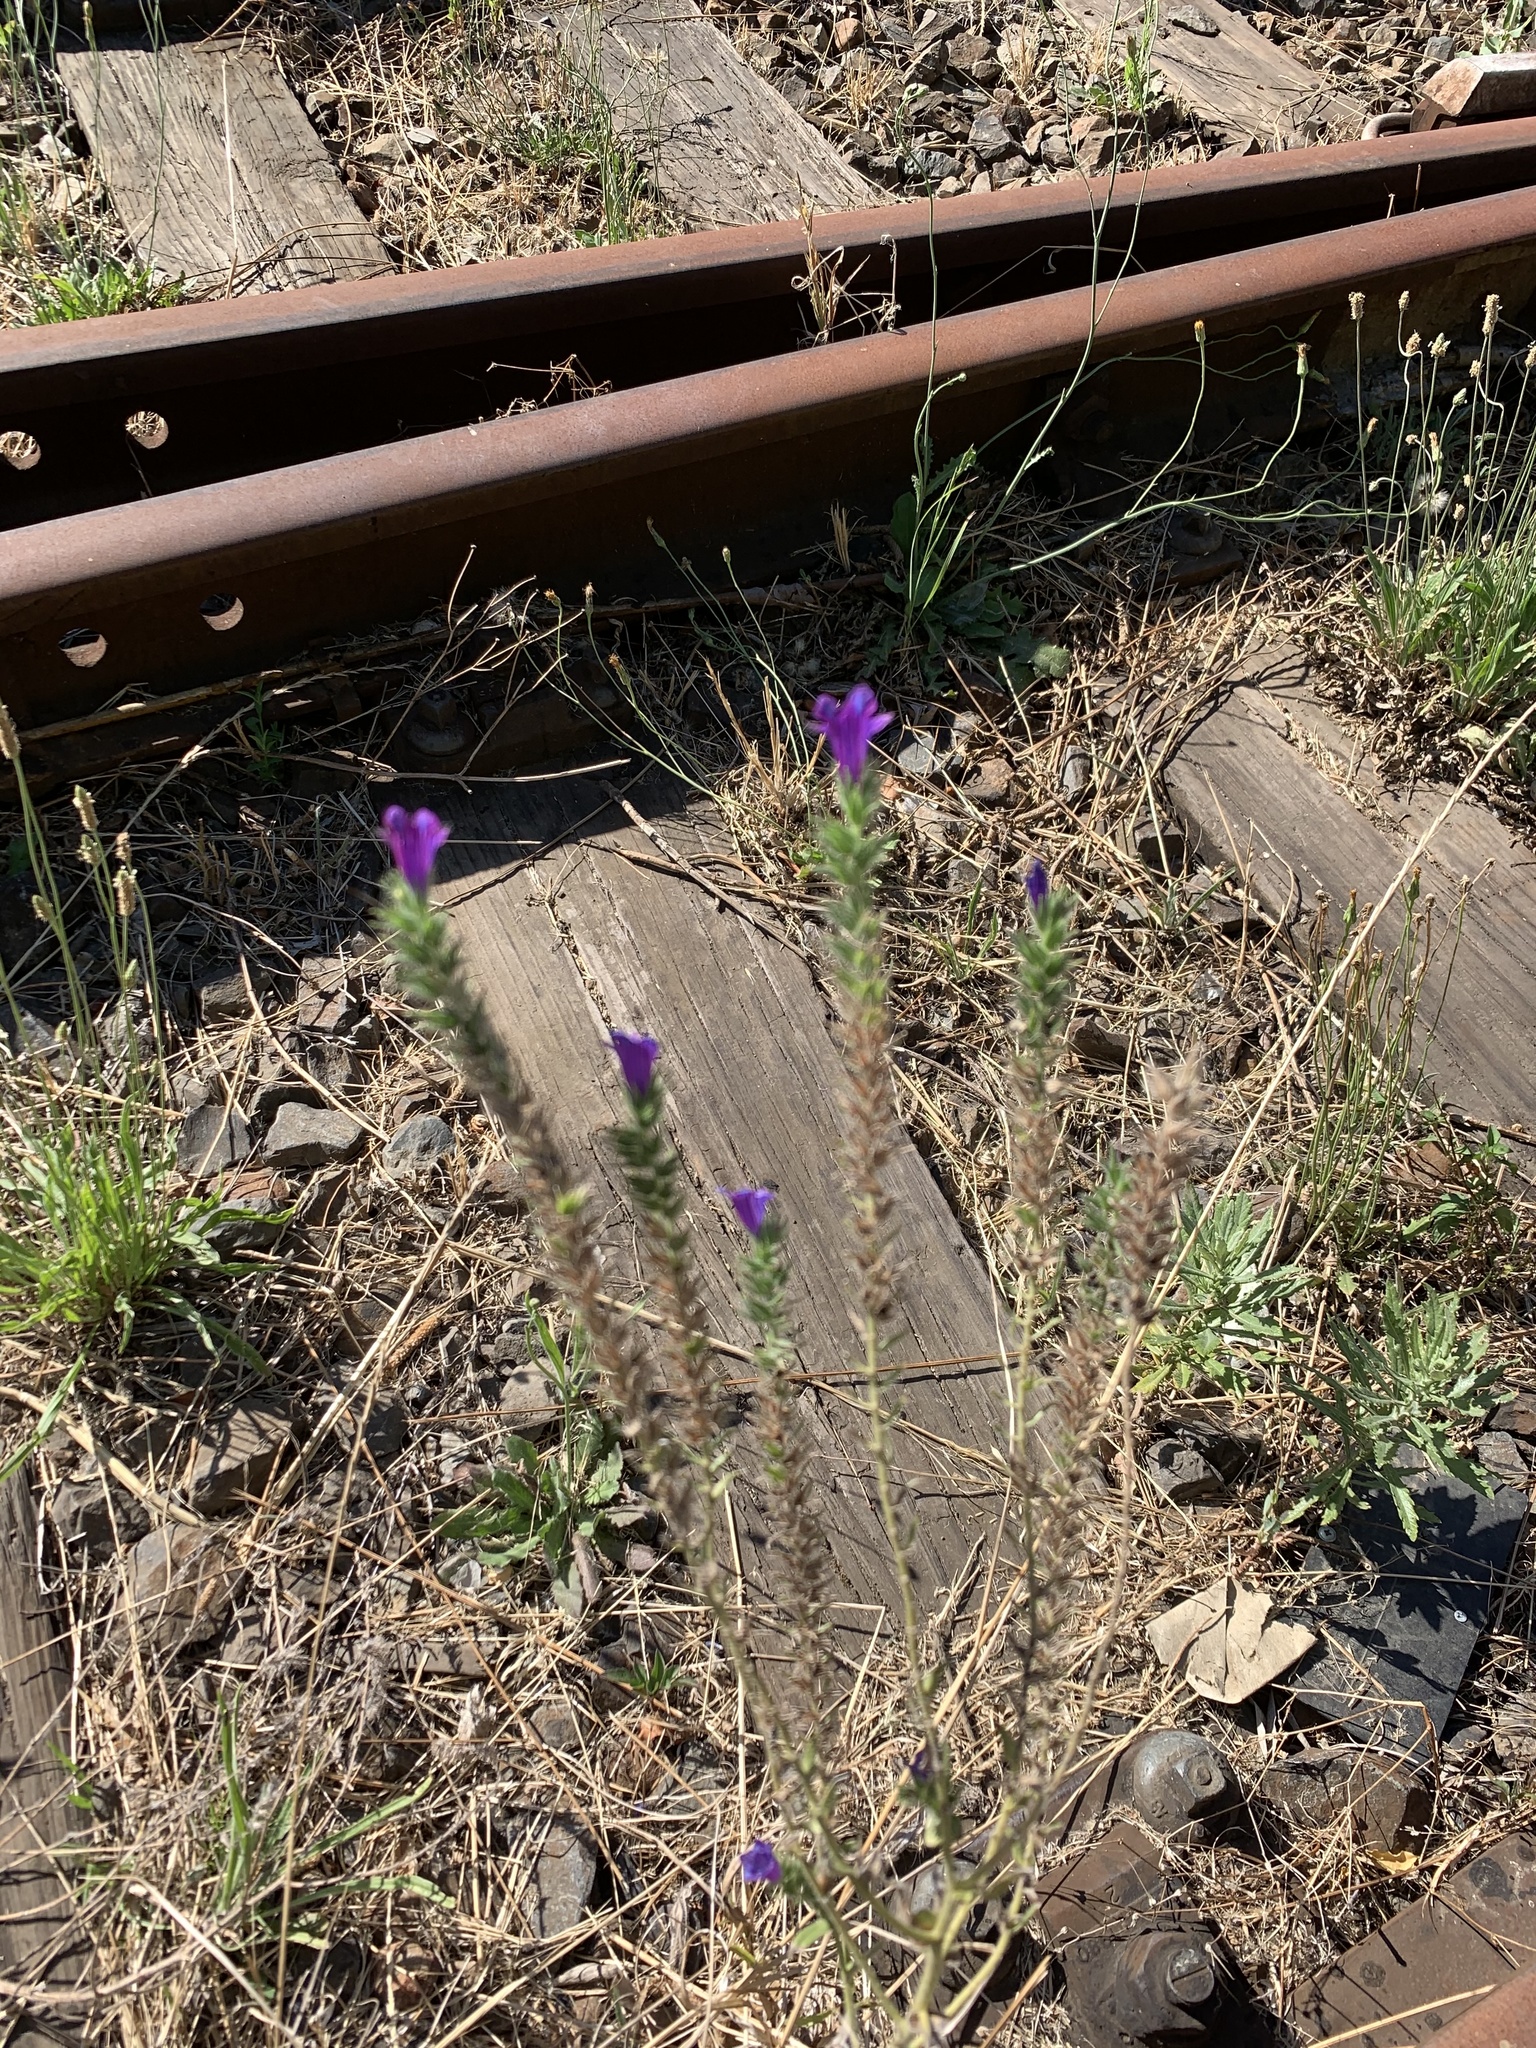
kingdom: Plantae
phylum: Tracheophyta
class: Magnoliopsida
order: Boraginales
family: Boraginaceae
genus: Echium
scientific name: Echium plantagineum
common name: Purple viper's-bugloss
